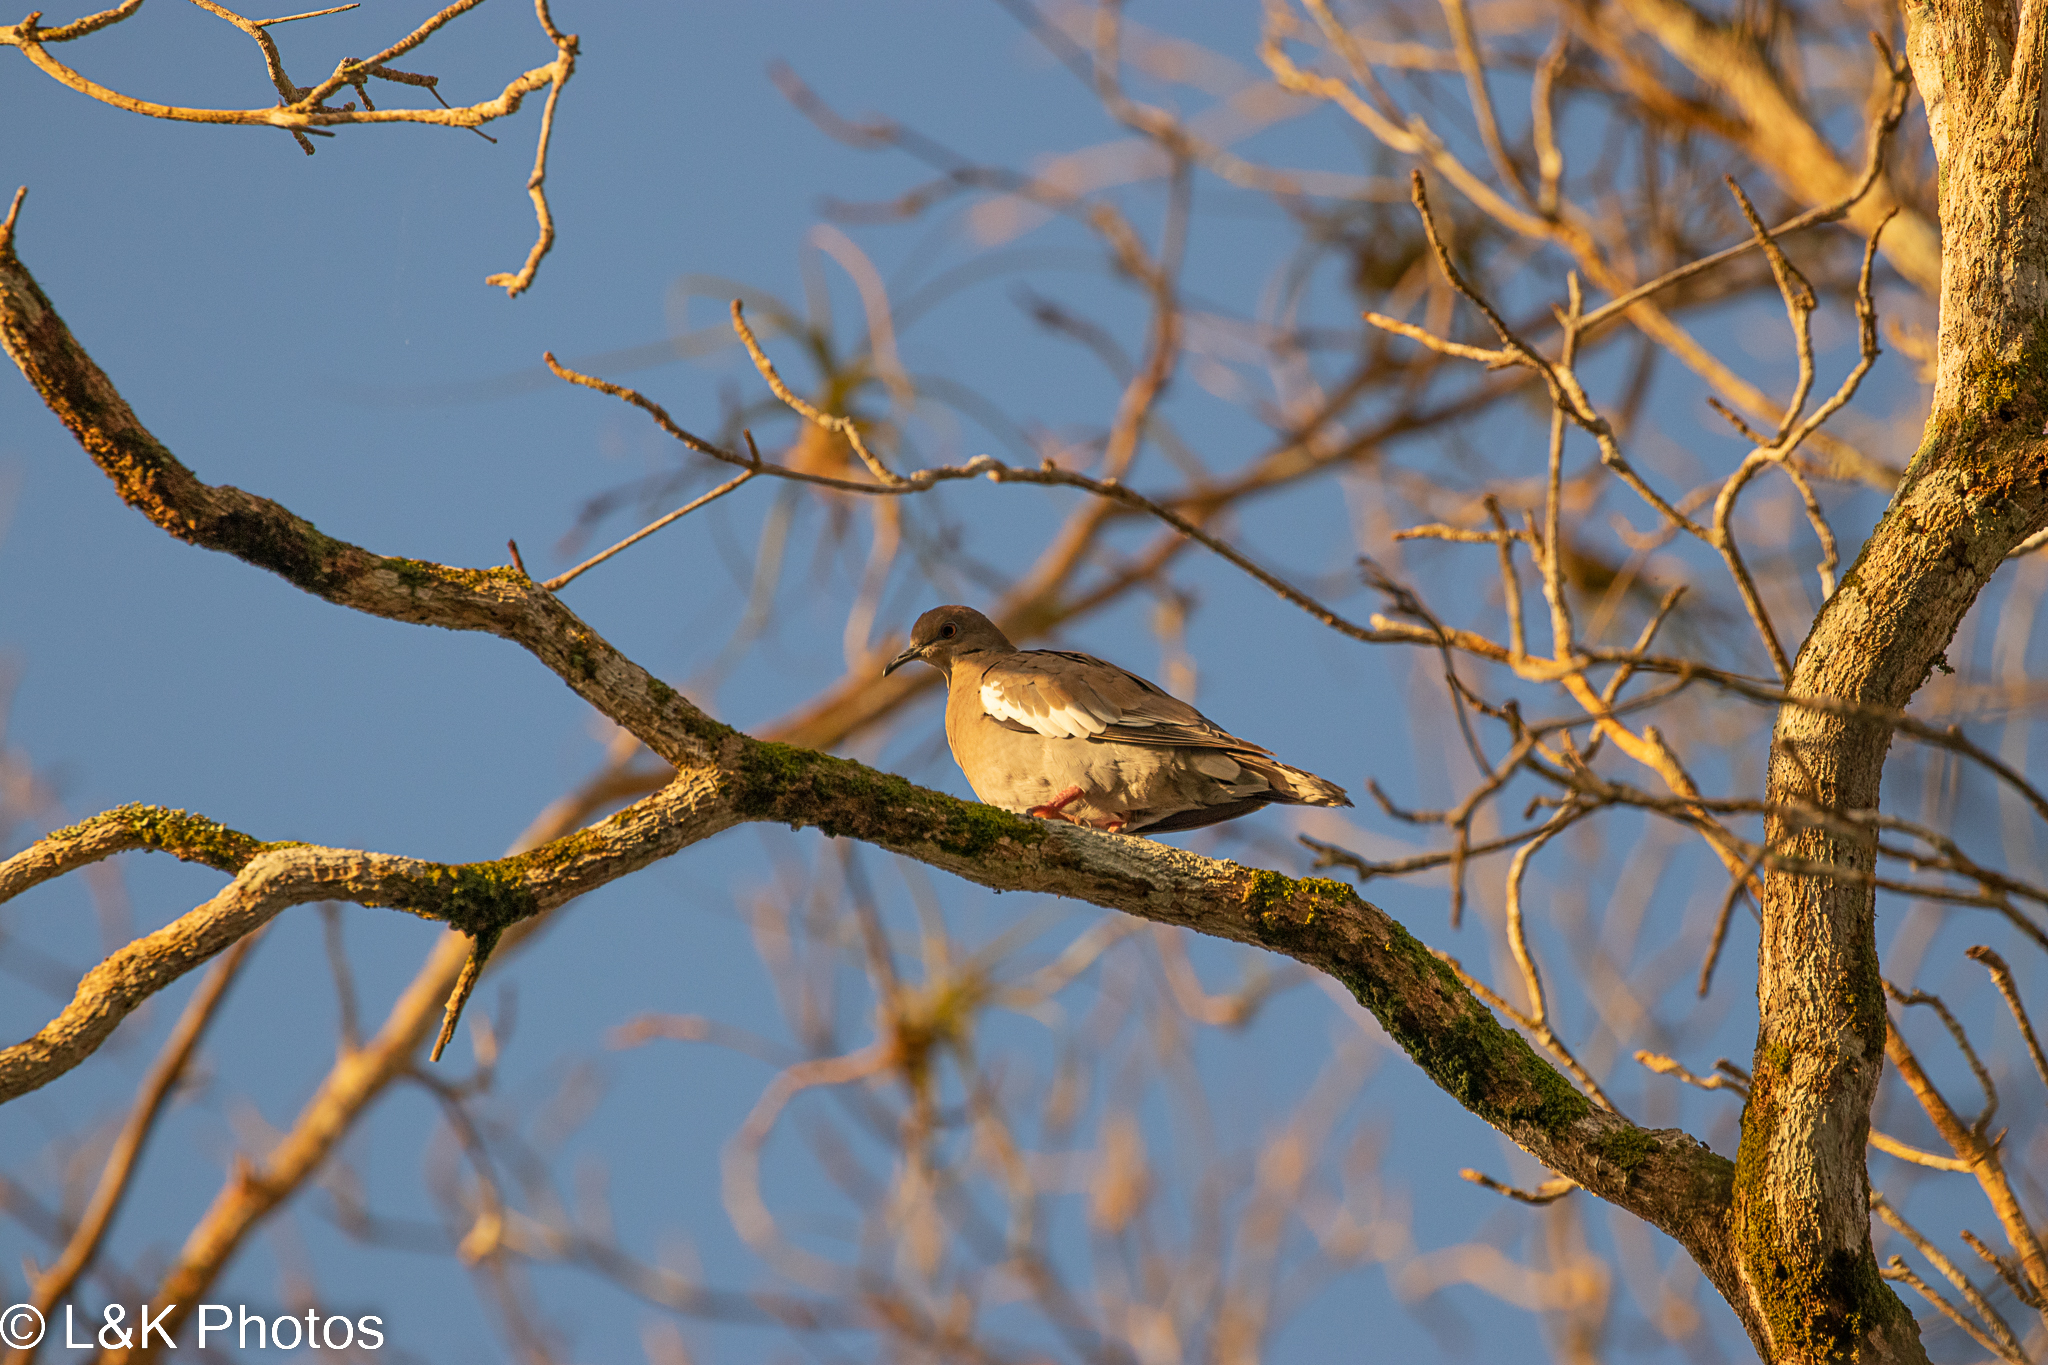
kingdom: Animalia
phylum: Chordata
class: Aves
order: Columbiformes
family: Columbidae
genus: Zenaida
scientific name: Zenaida asiatica
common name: White-winged dove
